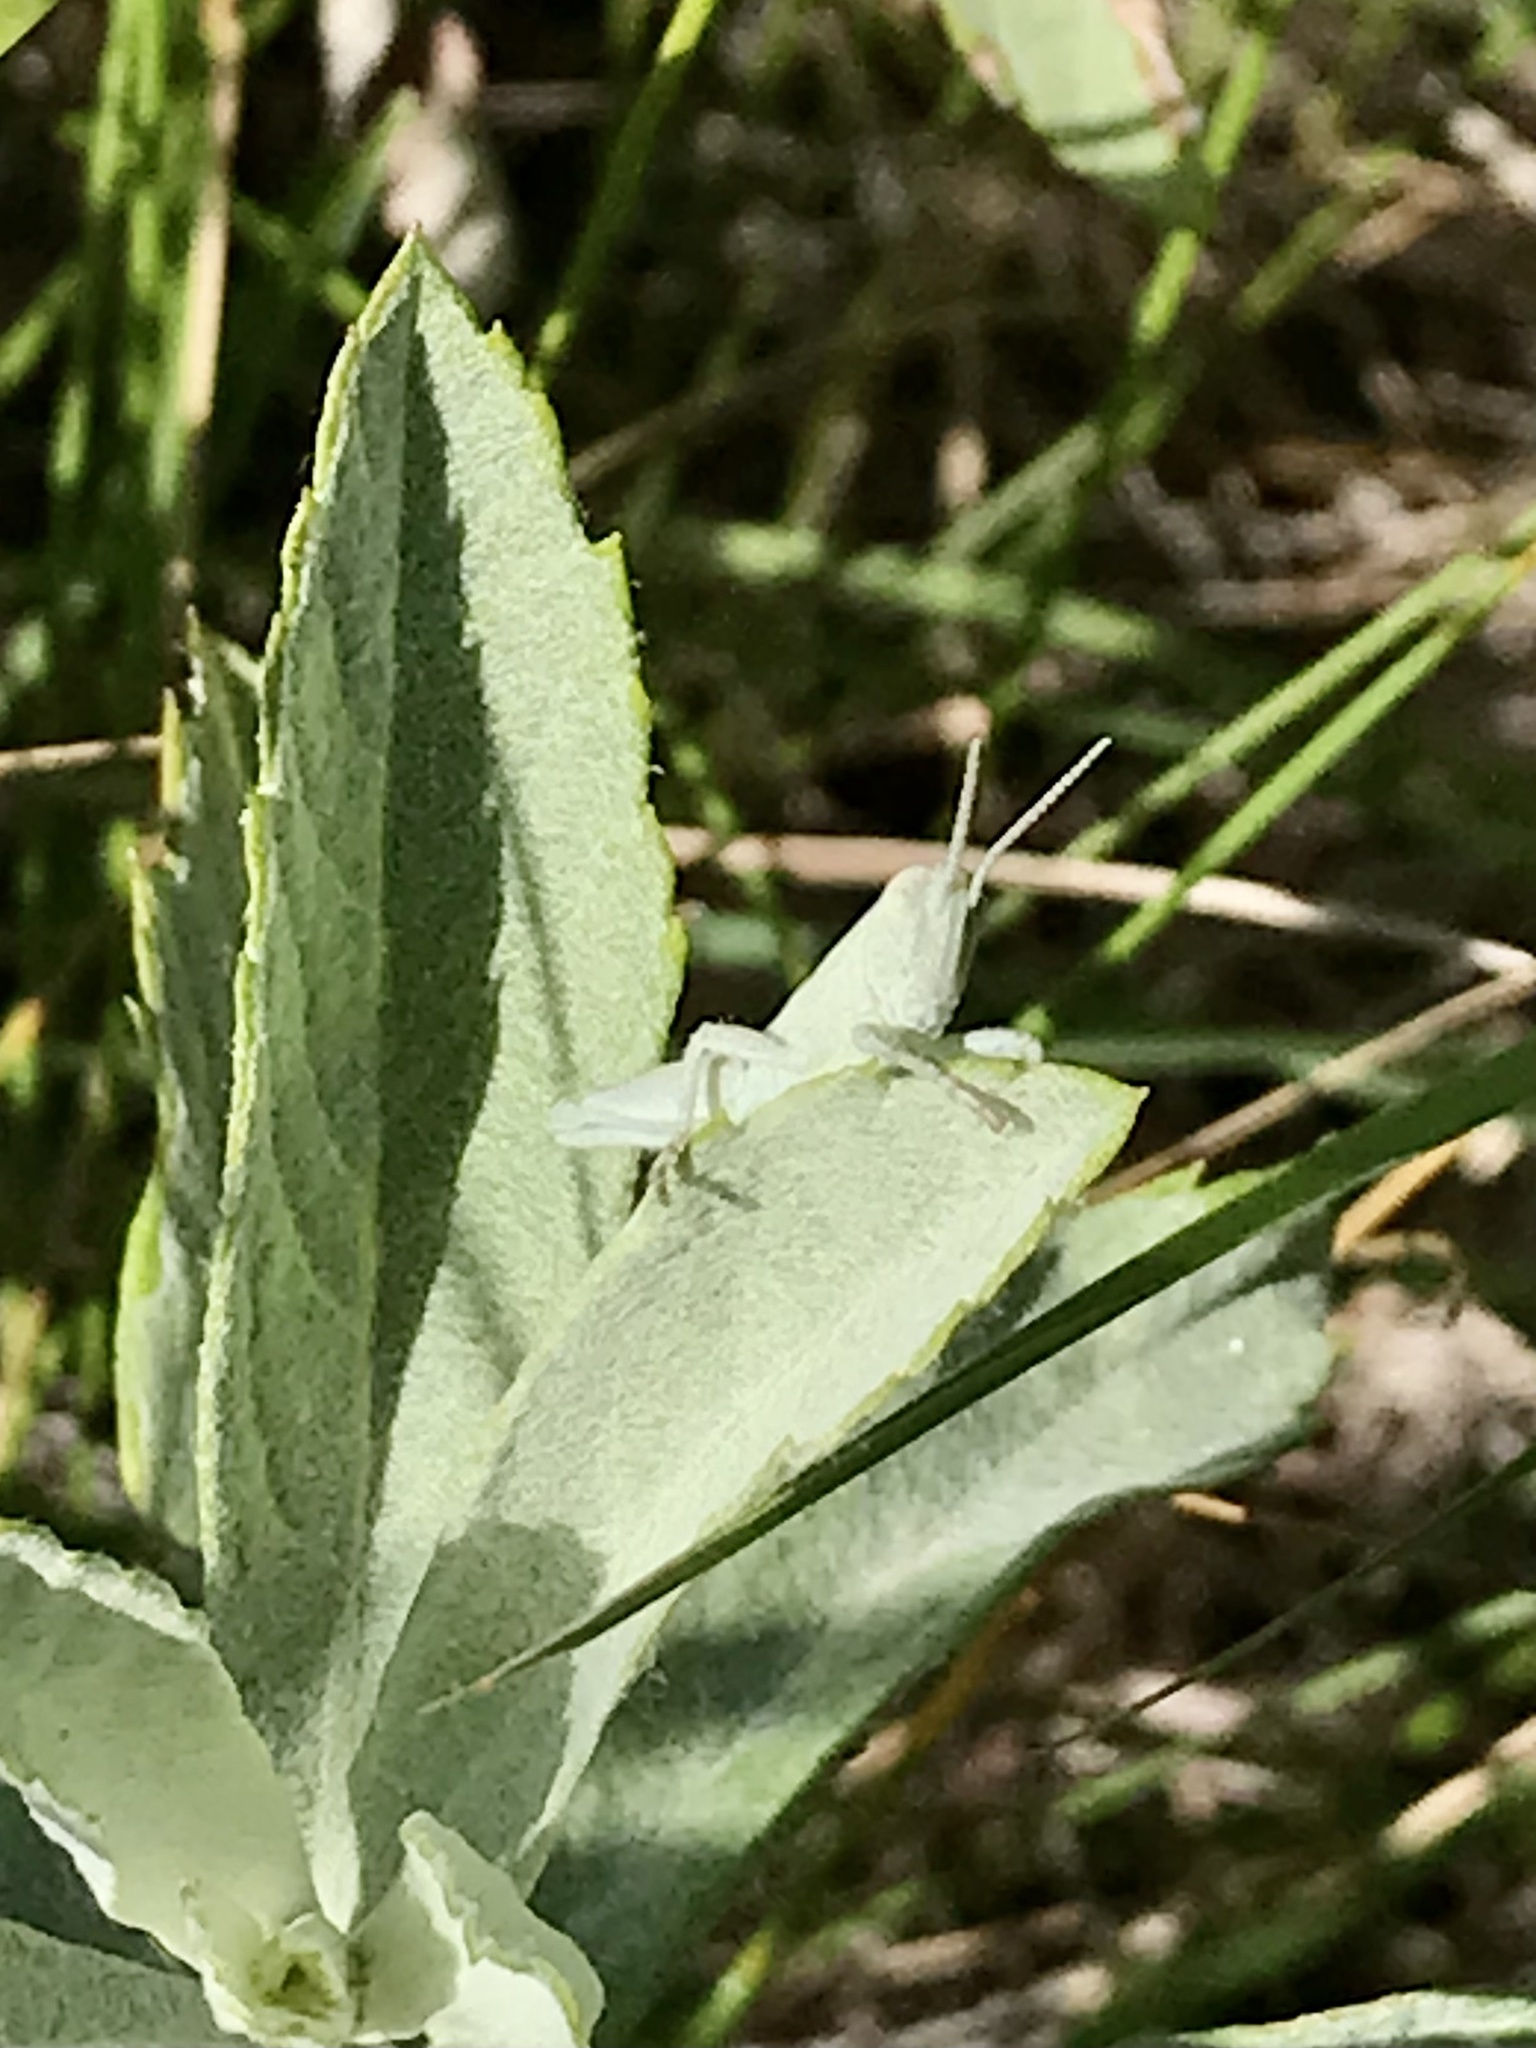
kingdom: Animalia
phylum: Arthropoda
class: Insecta
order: Orthoptera
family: Acrididae
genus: Hypochlora
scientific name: Hypochlora alba
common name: Cudweed grasshopper
